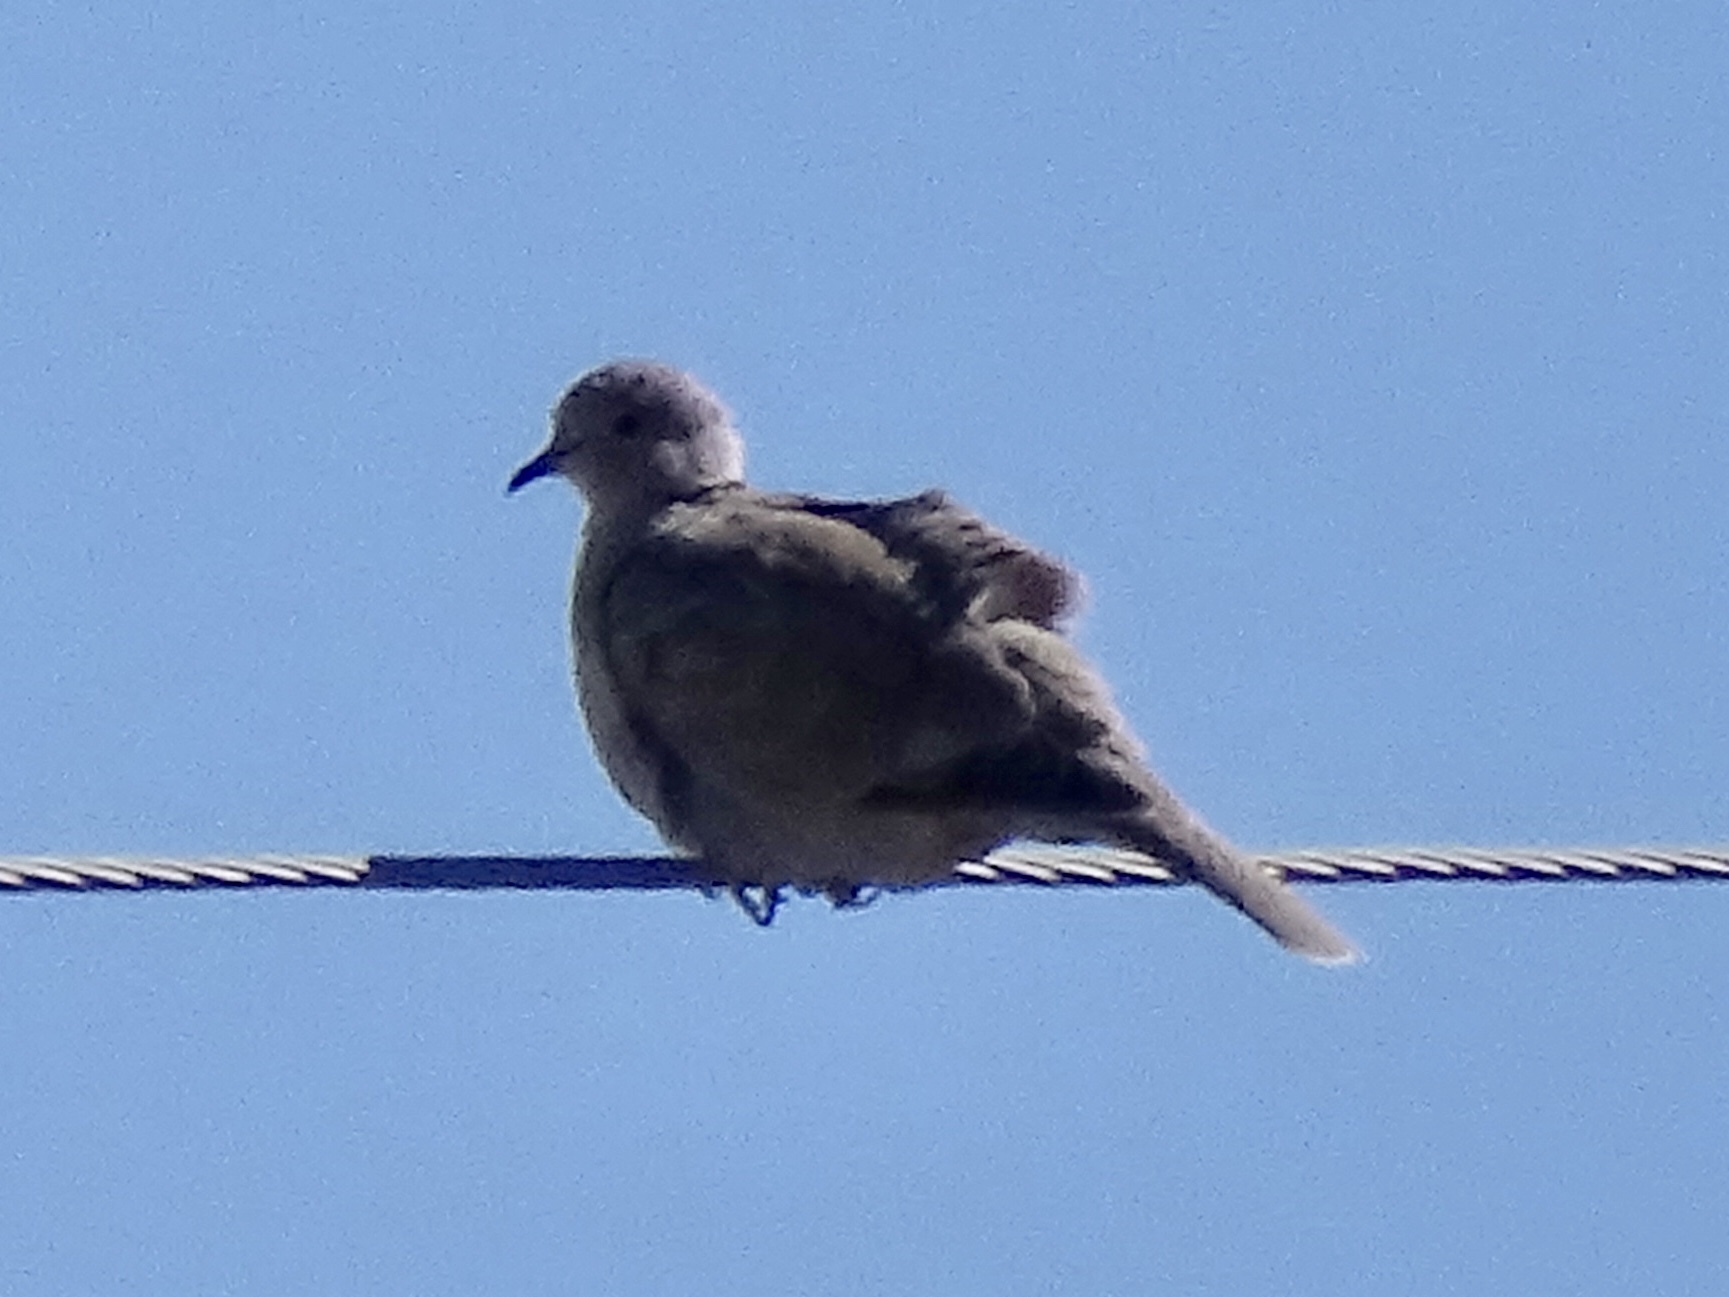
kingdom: Animalia
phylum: Chordata
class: Aves
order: Columbiformes
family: Columbidae
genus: Streptopelia
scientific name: Streptopelia decaocto
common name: Eurasian collared dove
